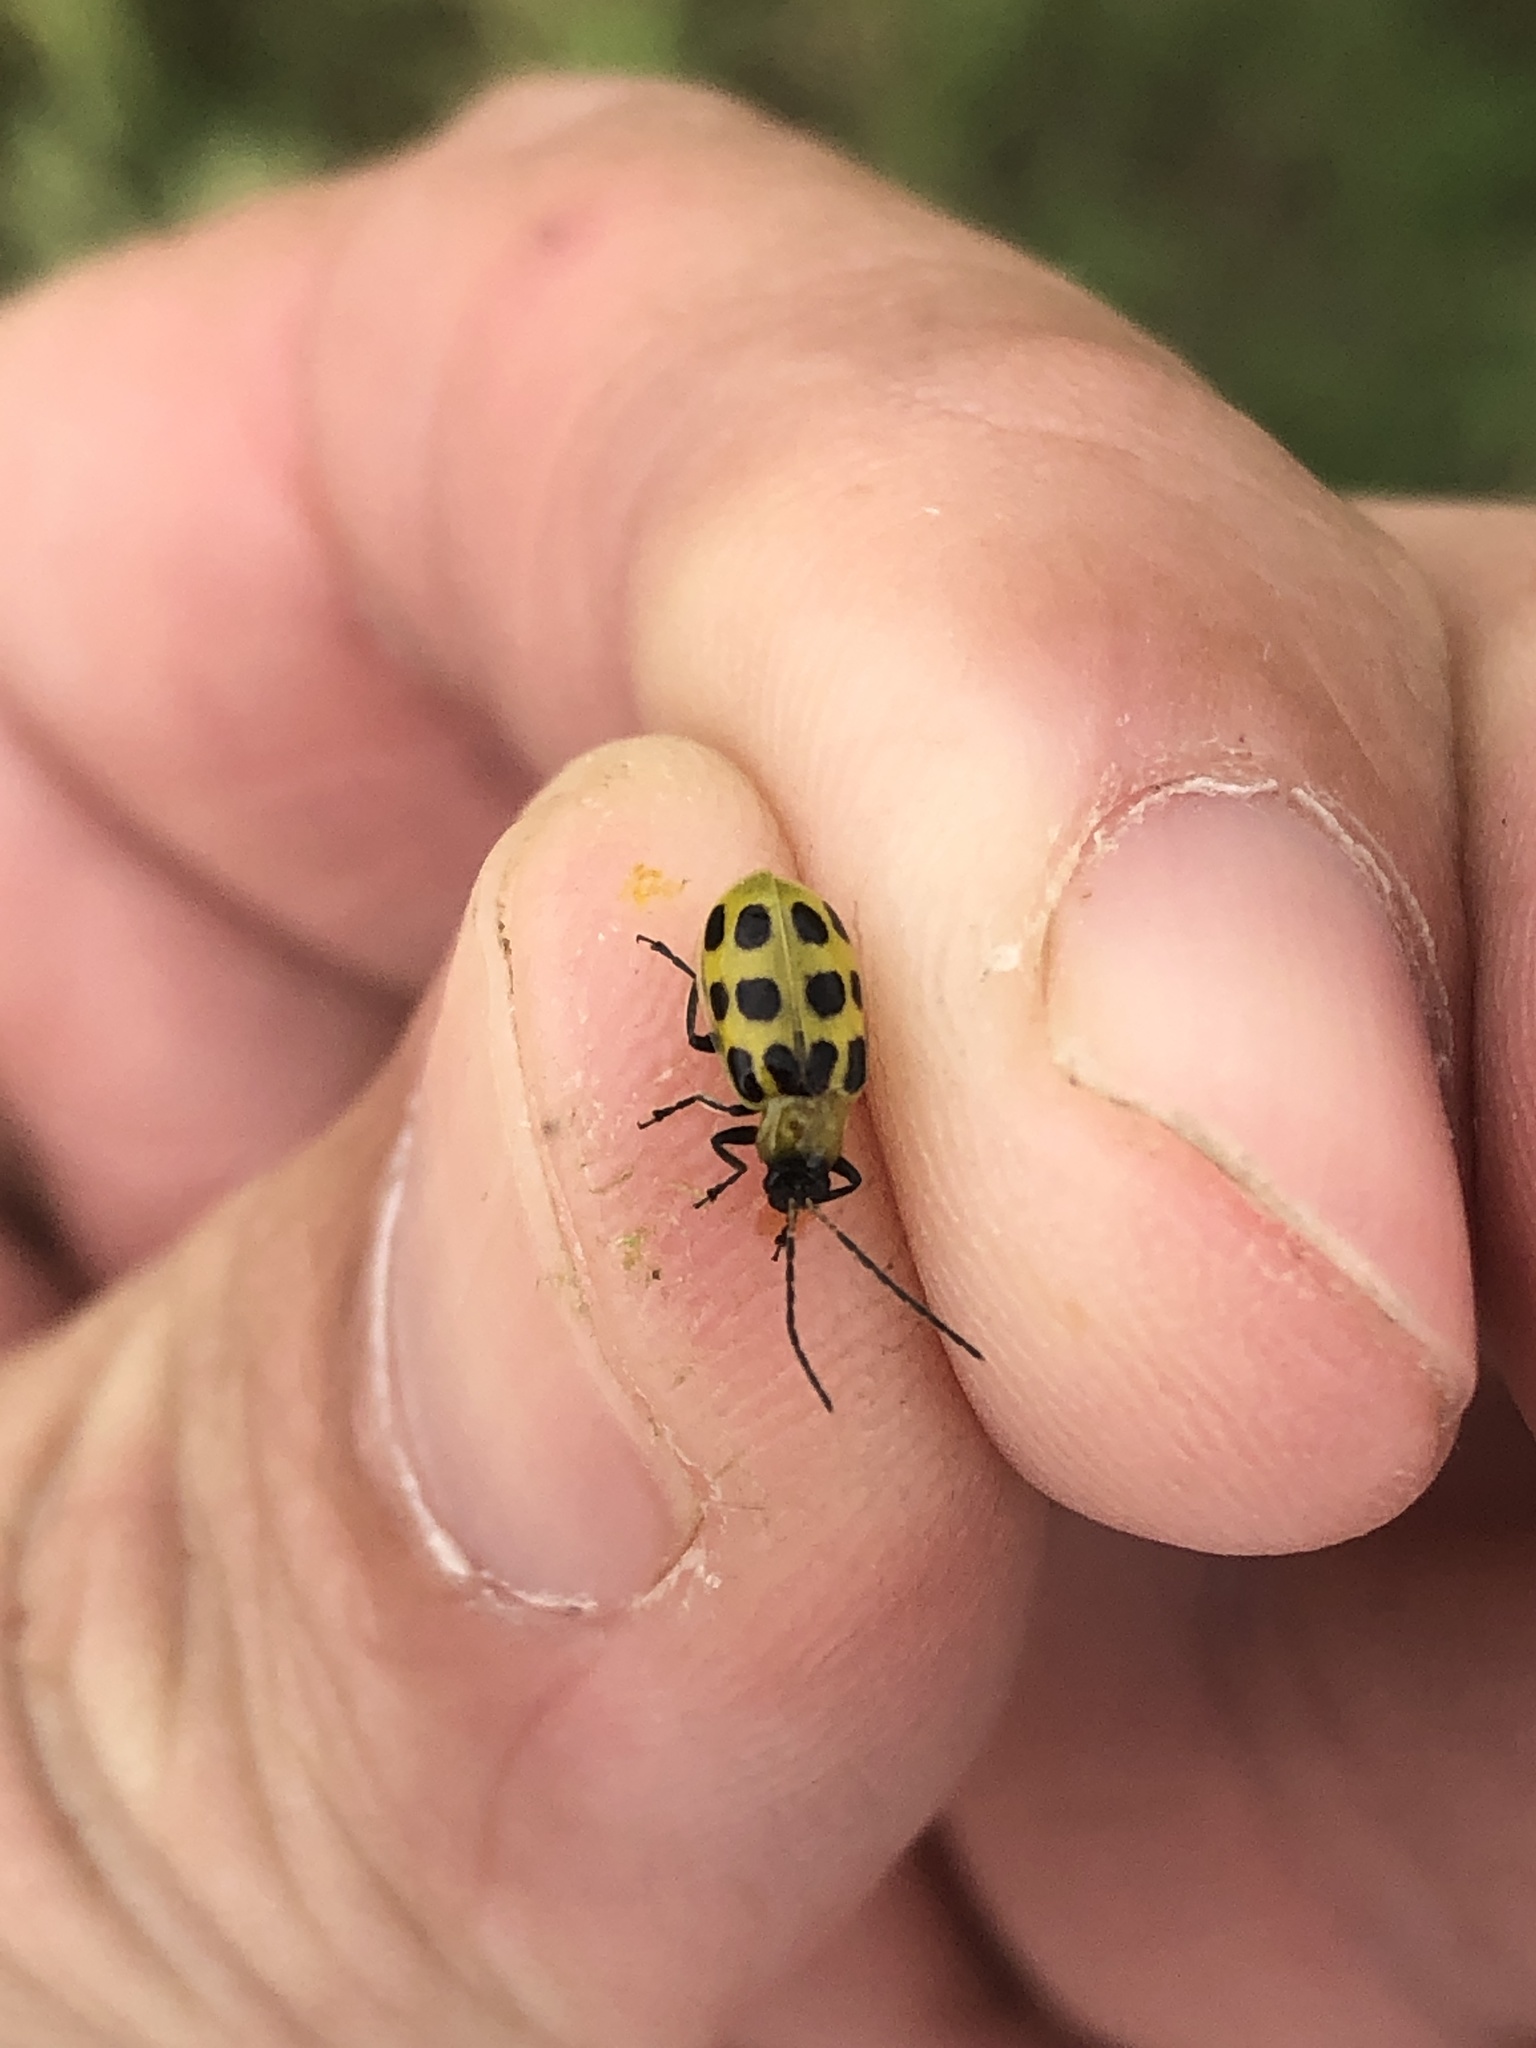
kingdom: Animalia
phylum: Arthropoda
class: Insecta
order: Coleoptera
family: Chrysomelidae
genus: Diabrotica
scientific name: Diabrotica undecimpunctata
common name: Spotted cucumber beetle
